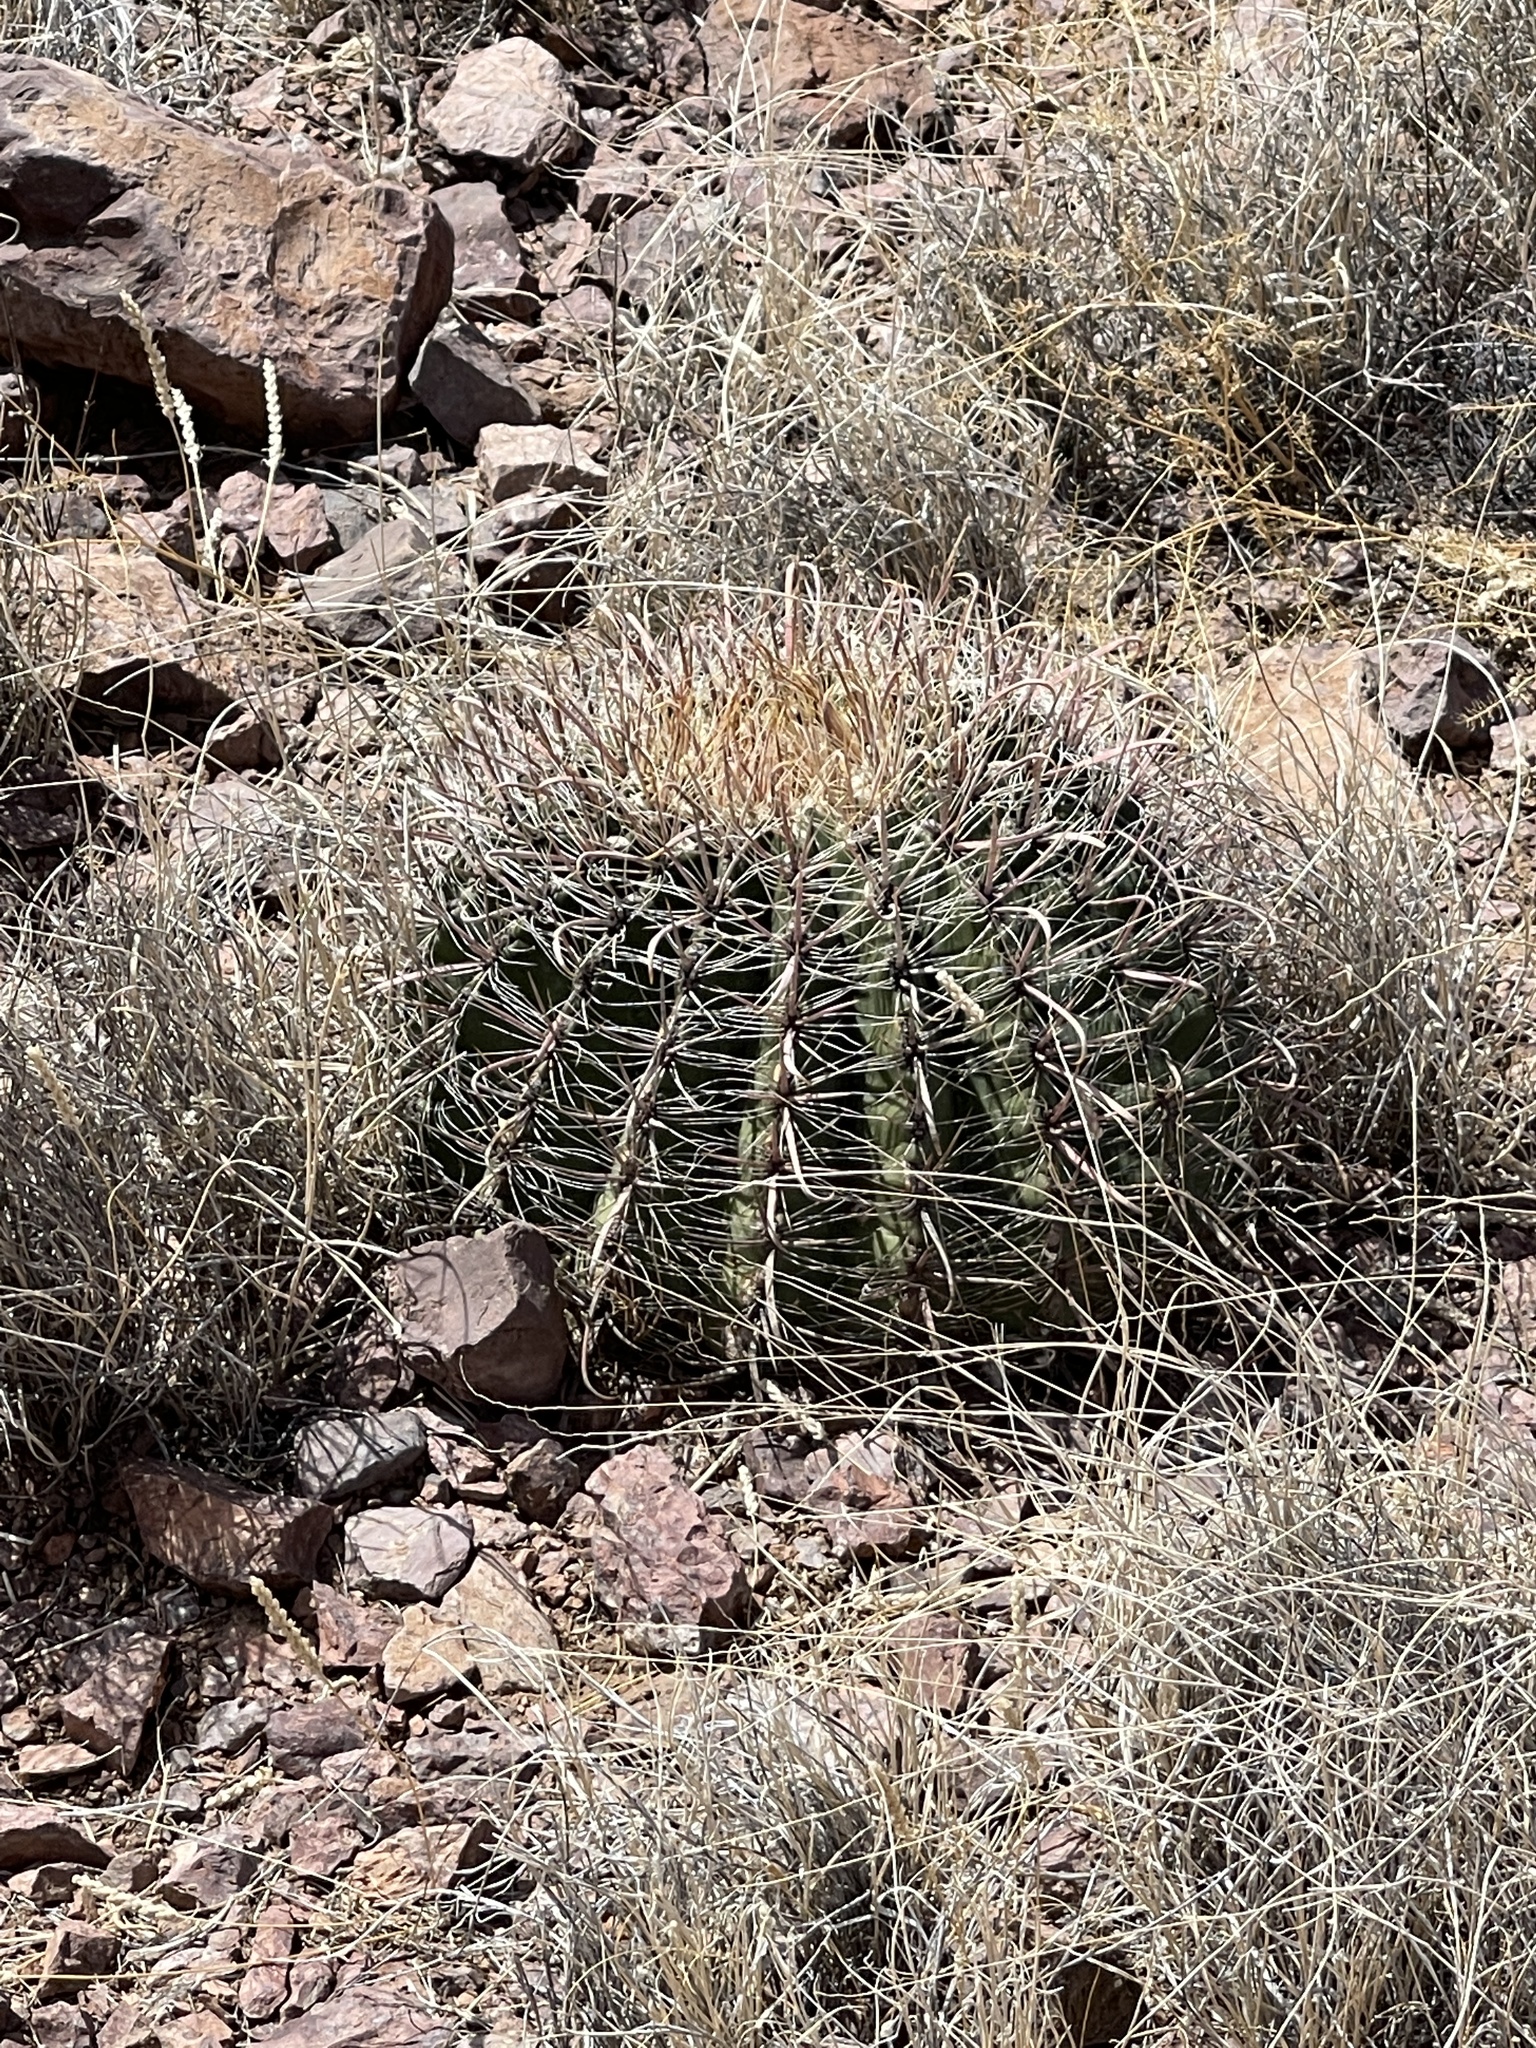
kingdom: Plantae
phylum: Tracheophyta
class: Magnoliopsida
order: Caryophyllales
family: Cactaceae
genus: Ferocactus
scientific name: Ferocactus wislizeni
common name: Candy barrel cactus
